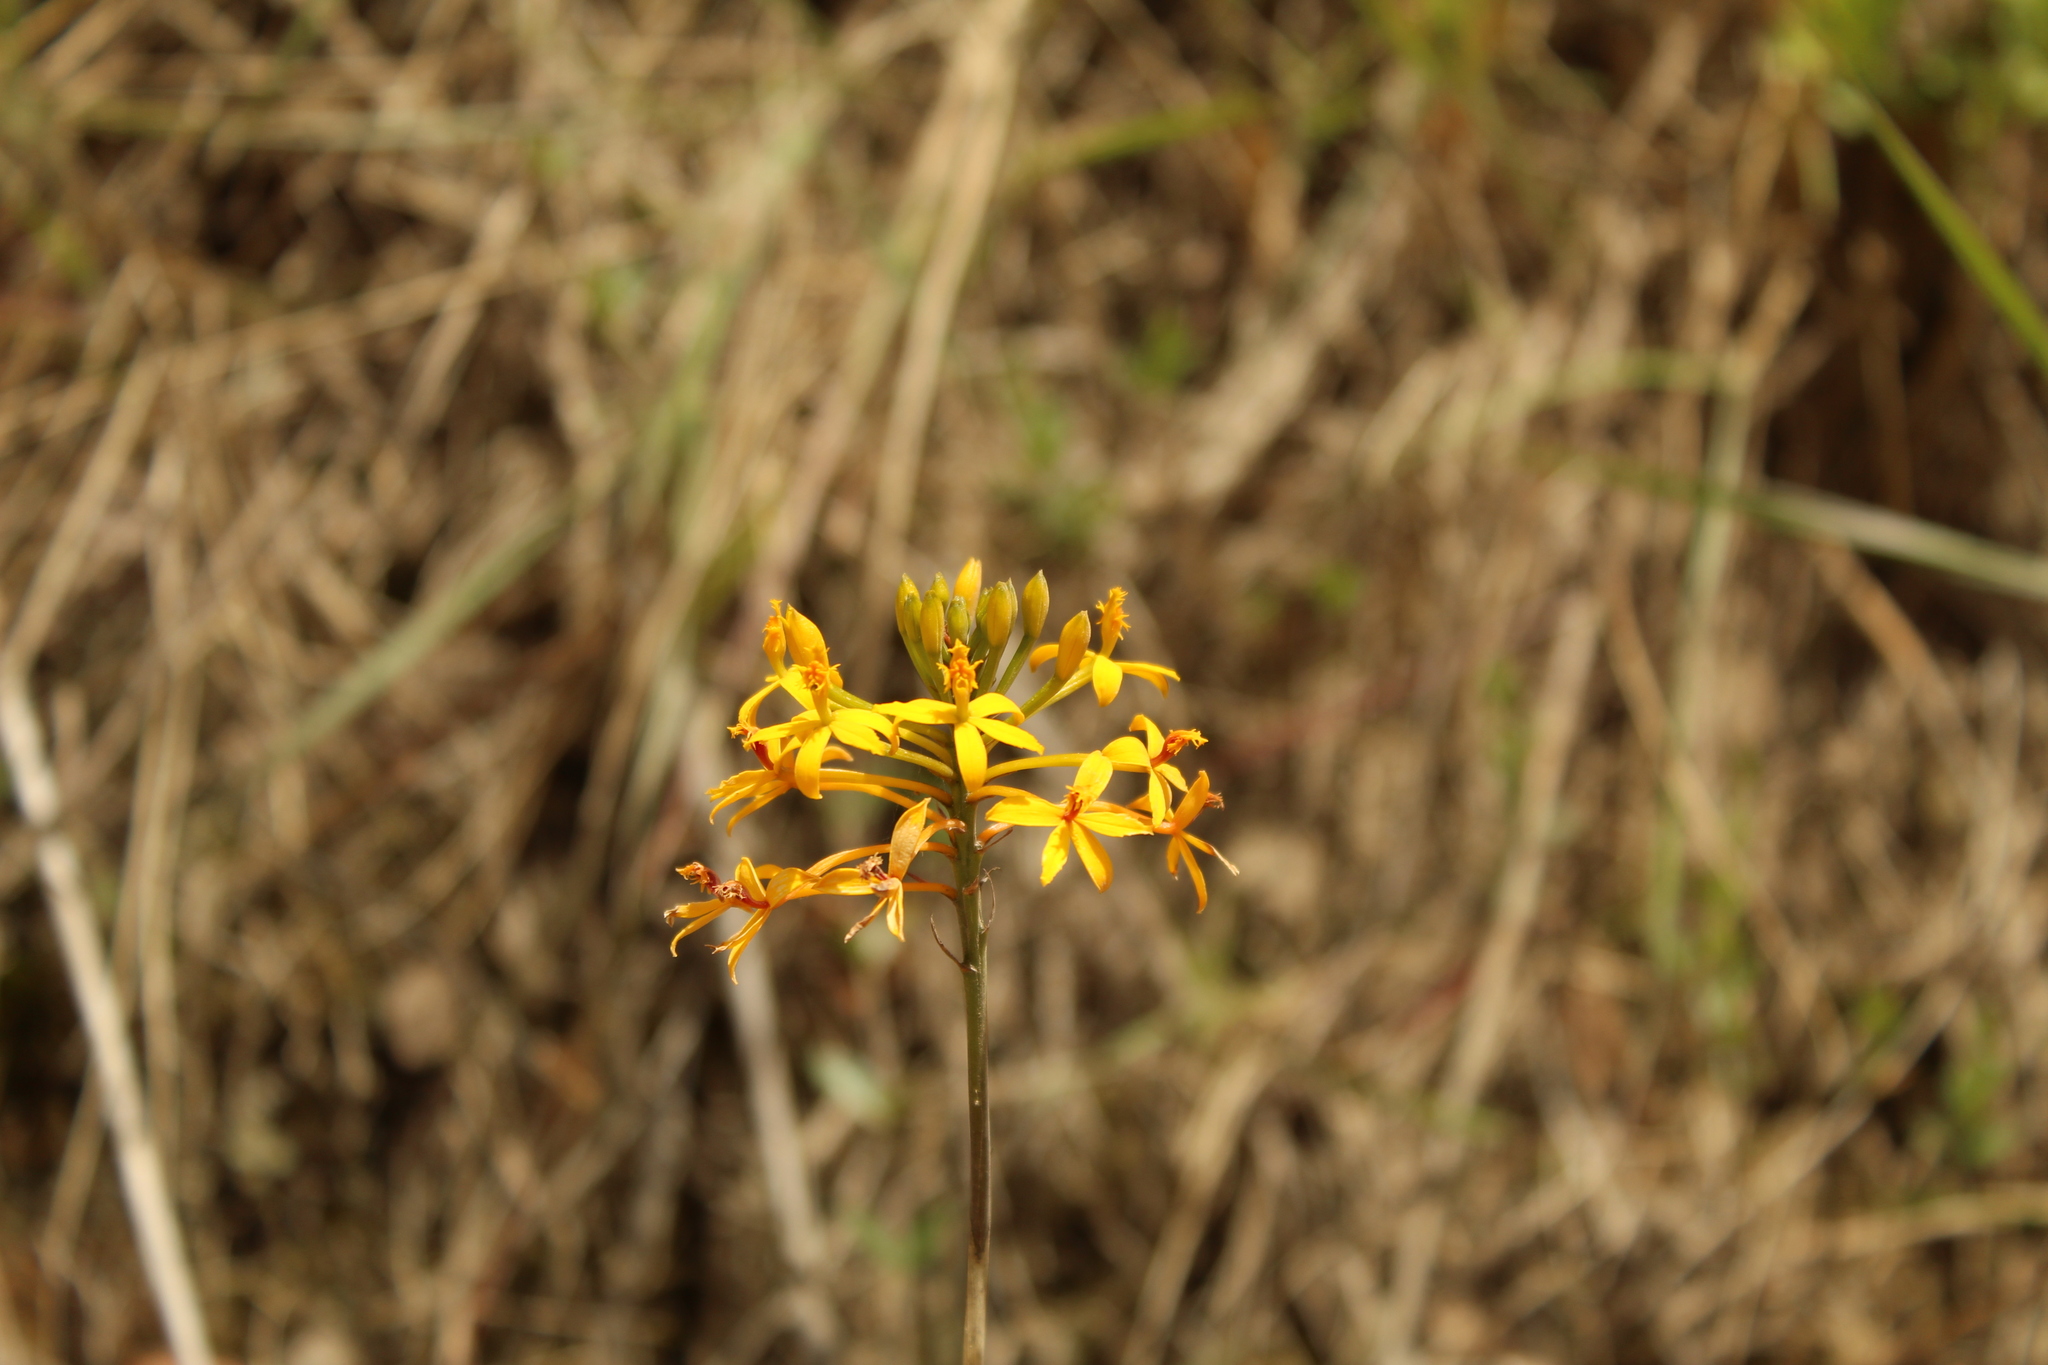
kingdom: Plantae
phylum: Tracheophyta
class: Liliopsida
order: Asparagales
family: Orchidaceae
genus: Epidendrum
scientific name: Epidendrum aura-usecheae
